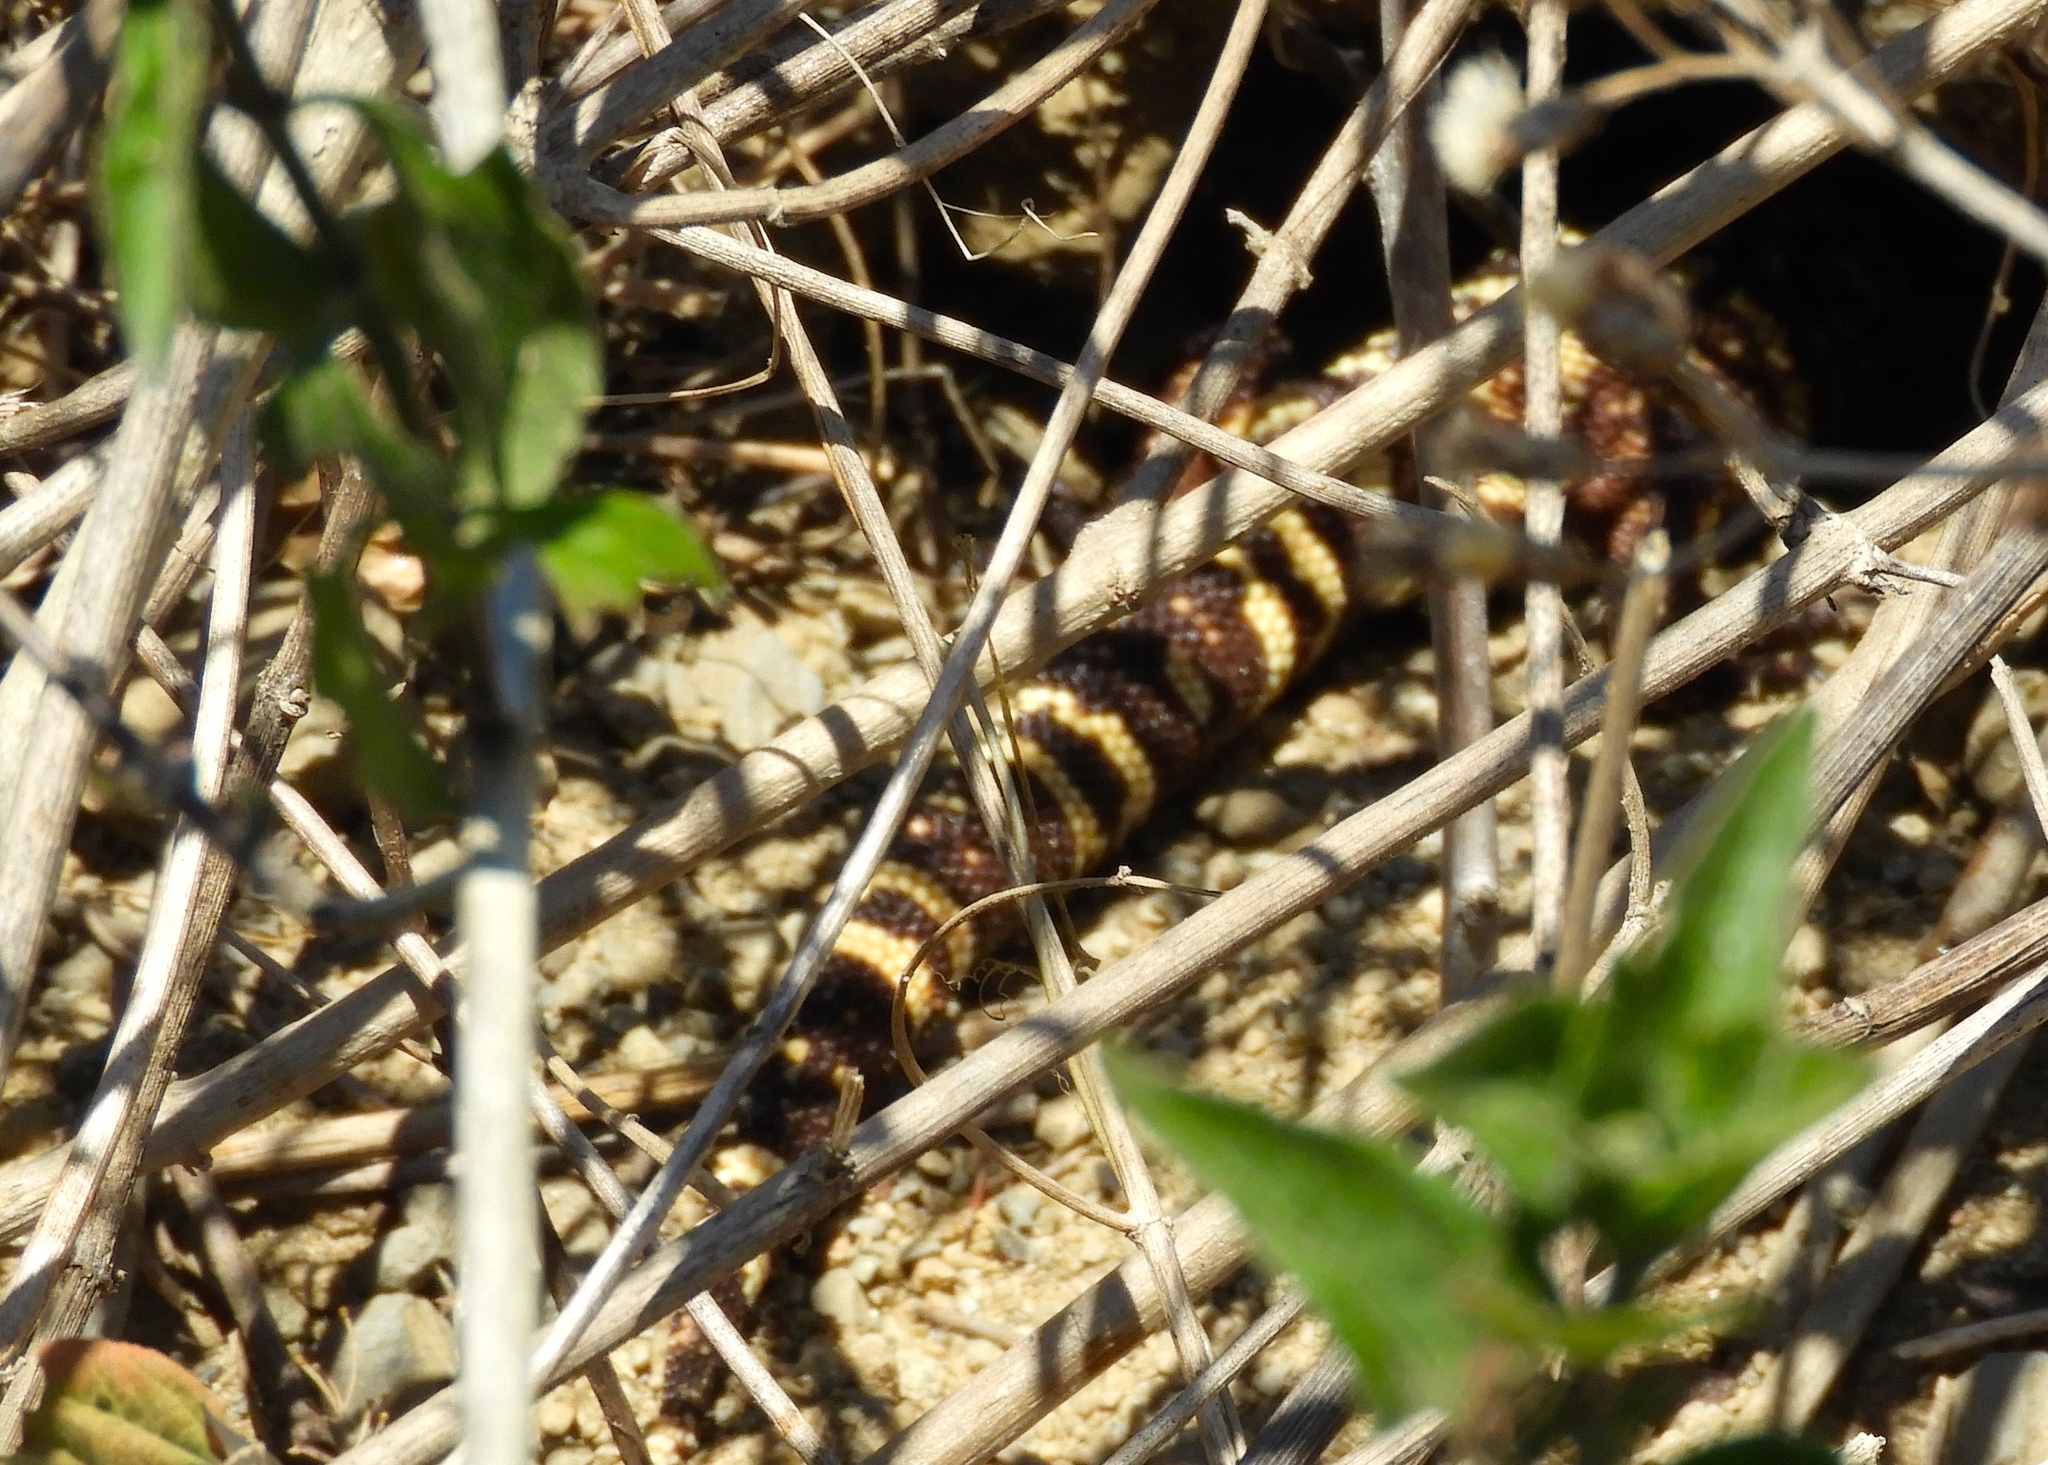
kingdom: Animalia
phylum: Chordata
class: Squamata
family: Helodermatidae
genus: Heloderma
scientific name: Heloderma horridum
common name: Mexican beaded lizard
